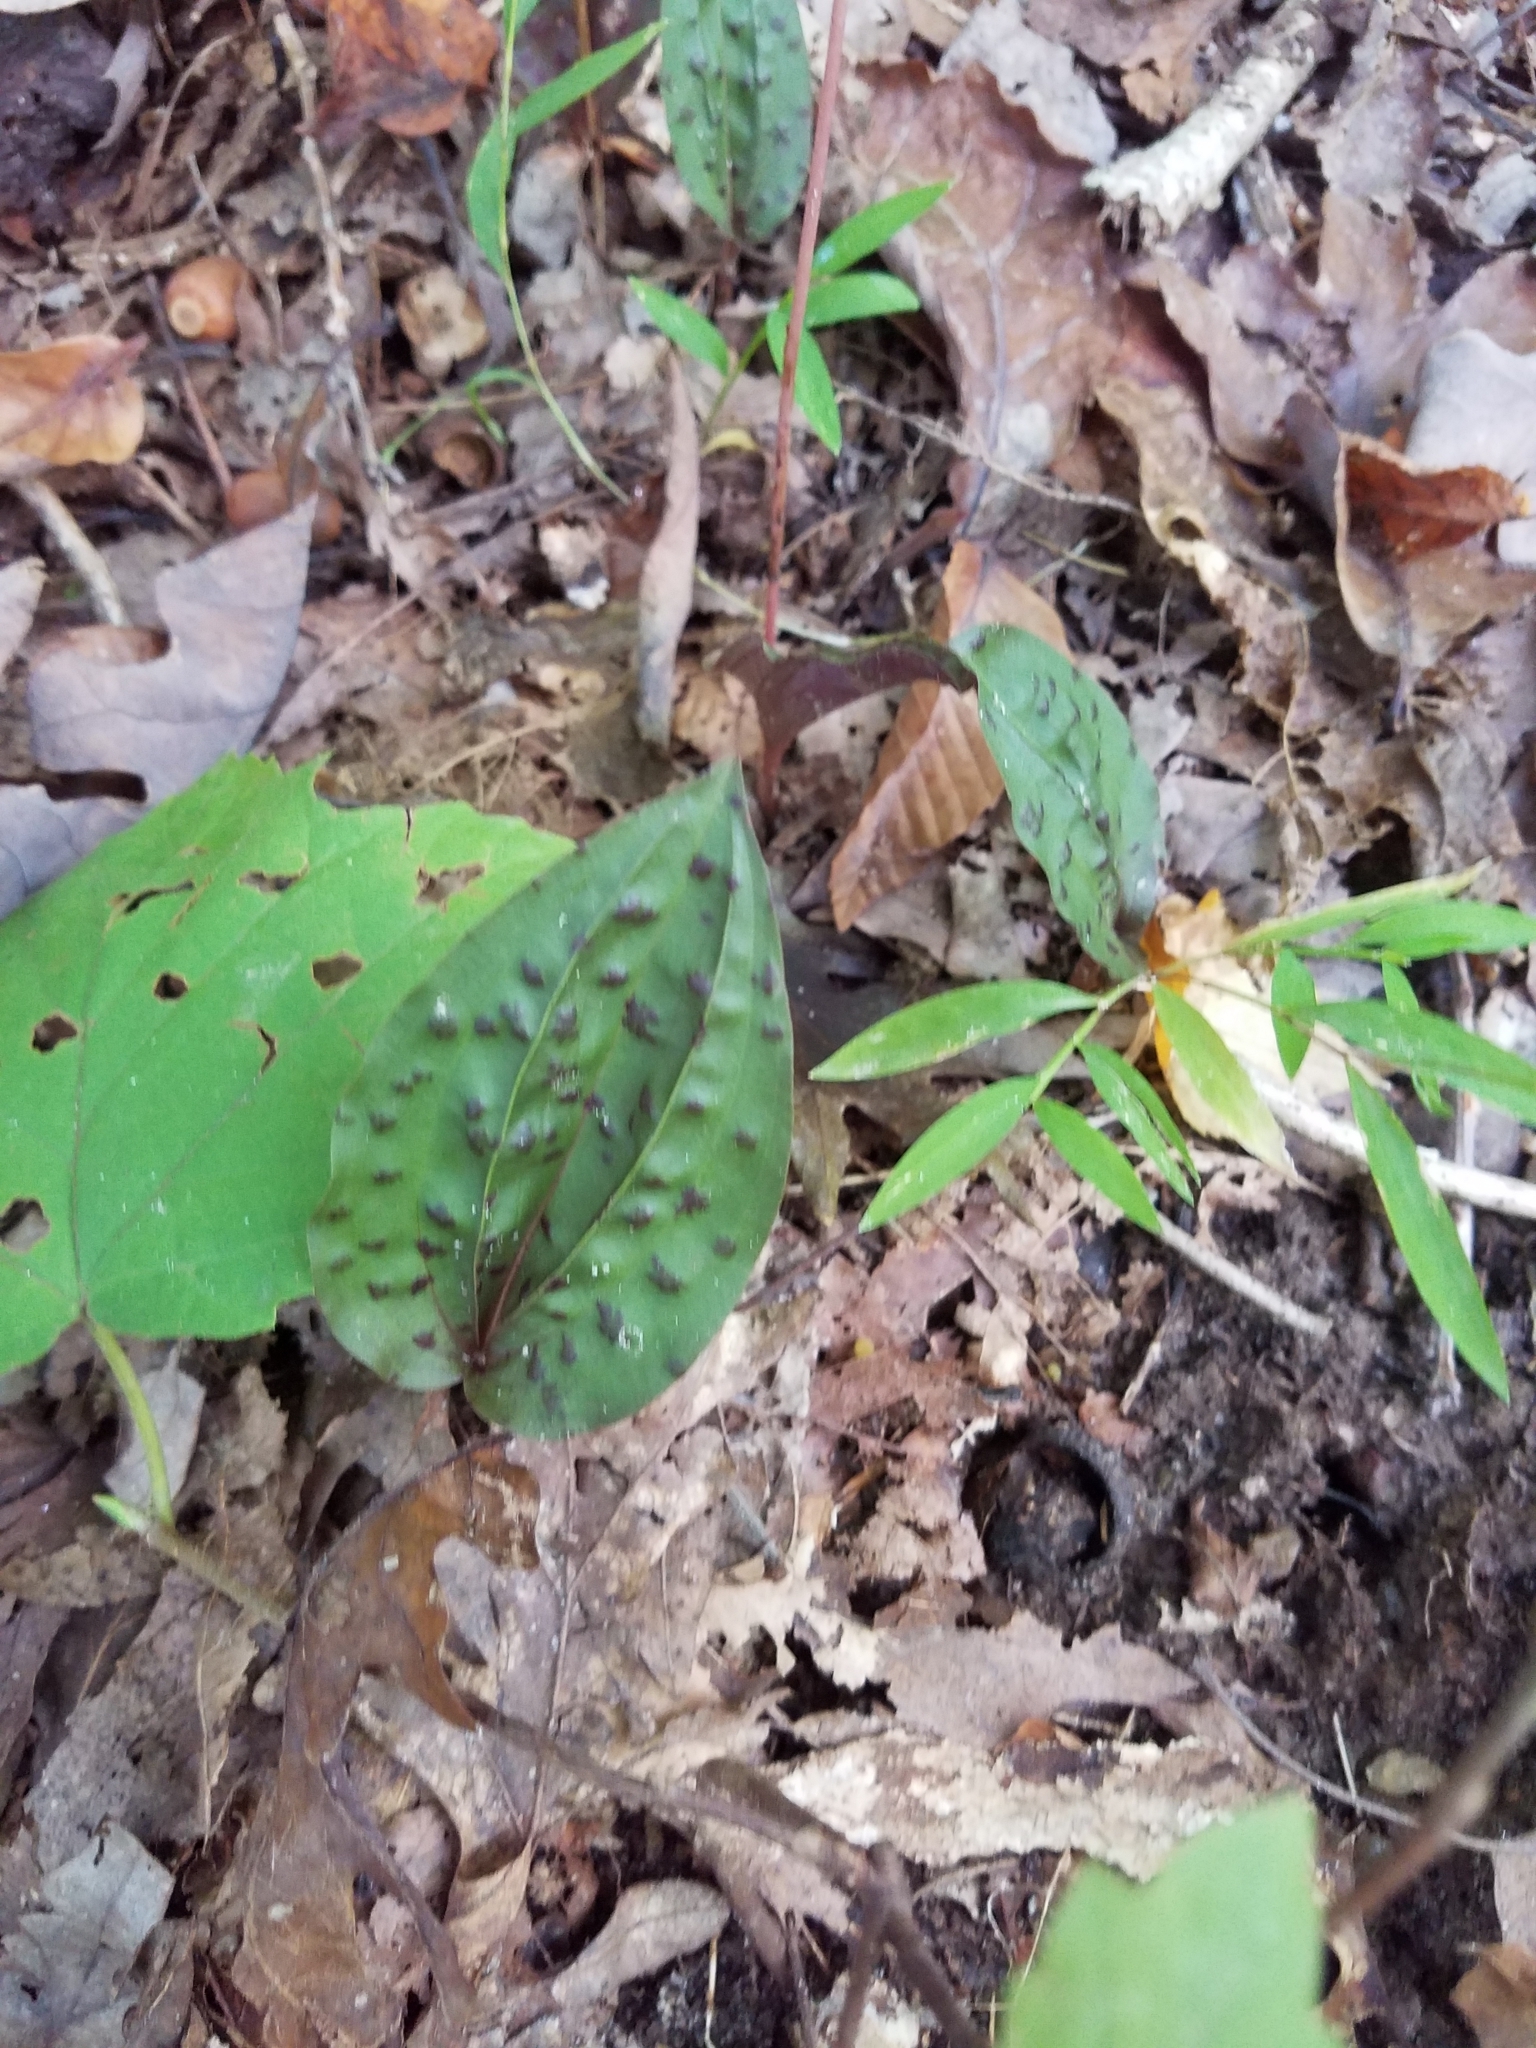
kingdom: Plantae
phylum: Tracheophyta
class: Liliopsida
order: Asparagales
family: Orchidaceae
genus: Tipularia
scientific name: Tipularia discolor
